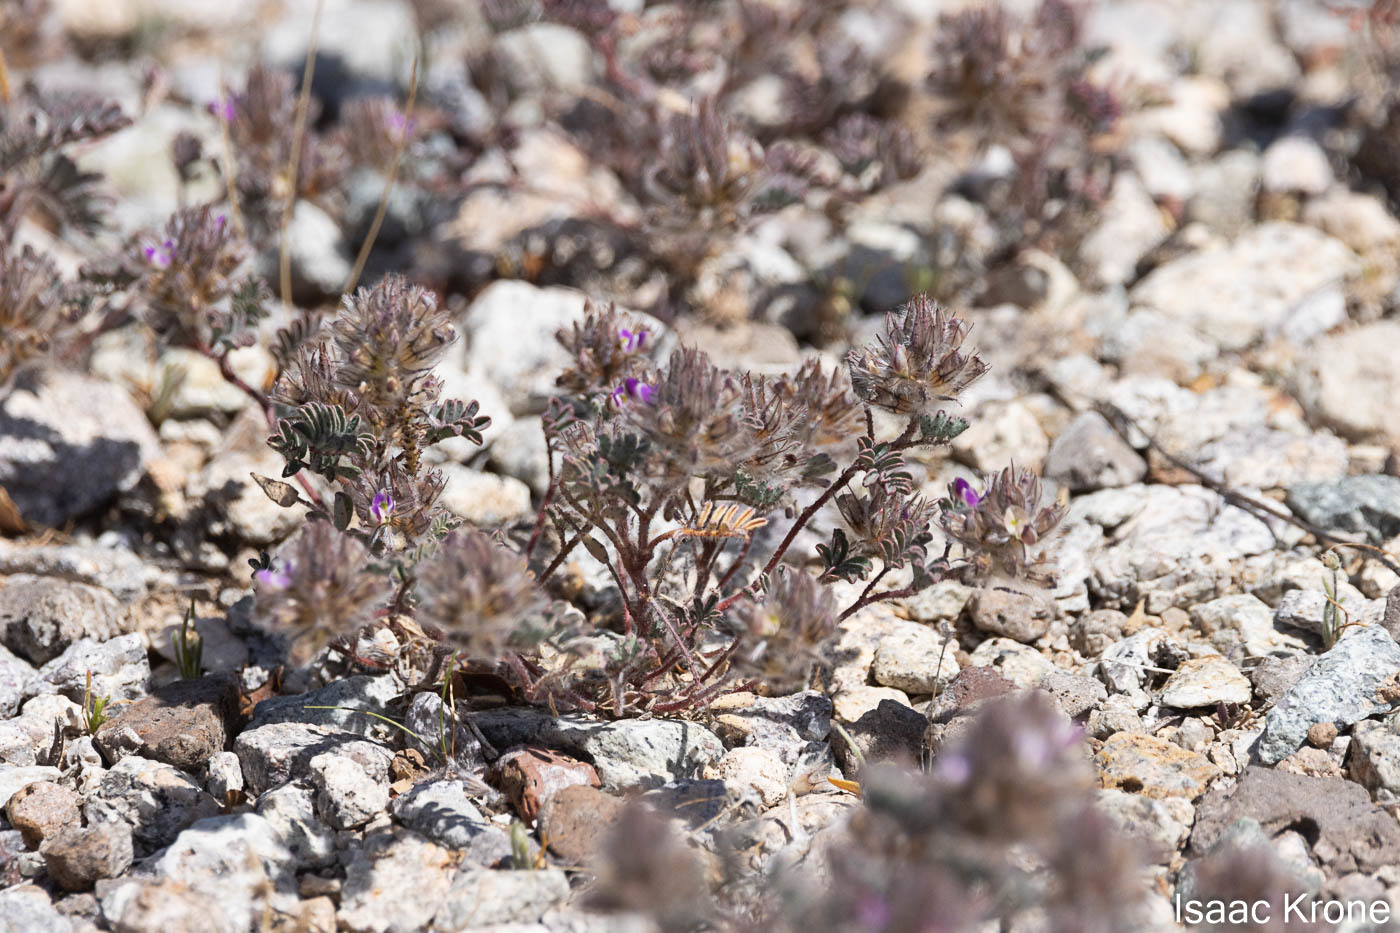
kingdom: Plantae
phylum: Tracheophyta
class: Magnoliopsida
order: Fabales
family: Fabaceae
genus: Dalea
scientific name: Dalea mollis
